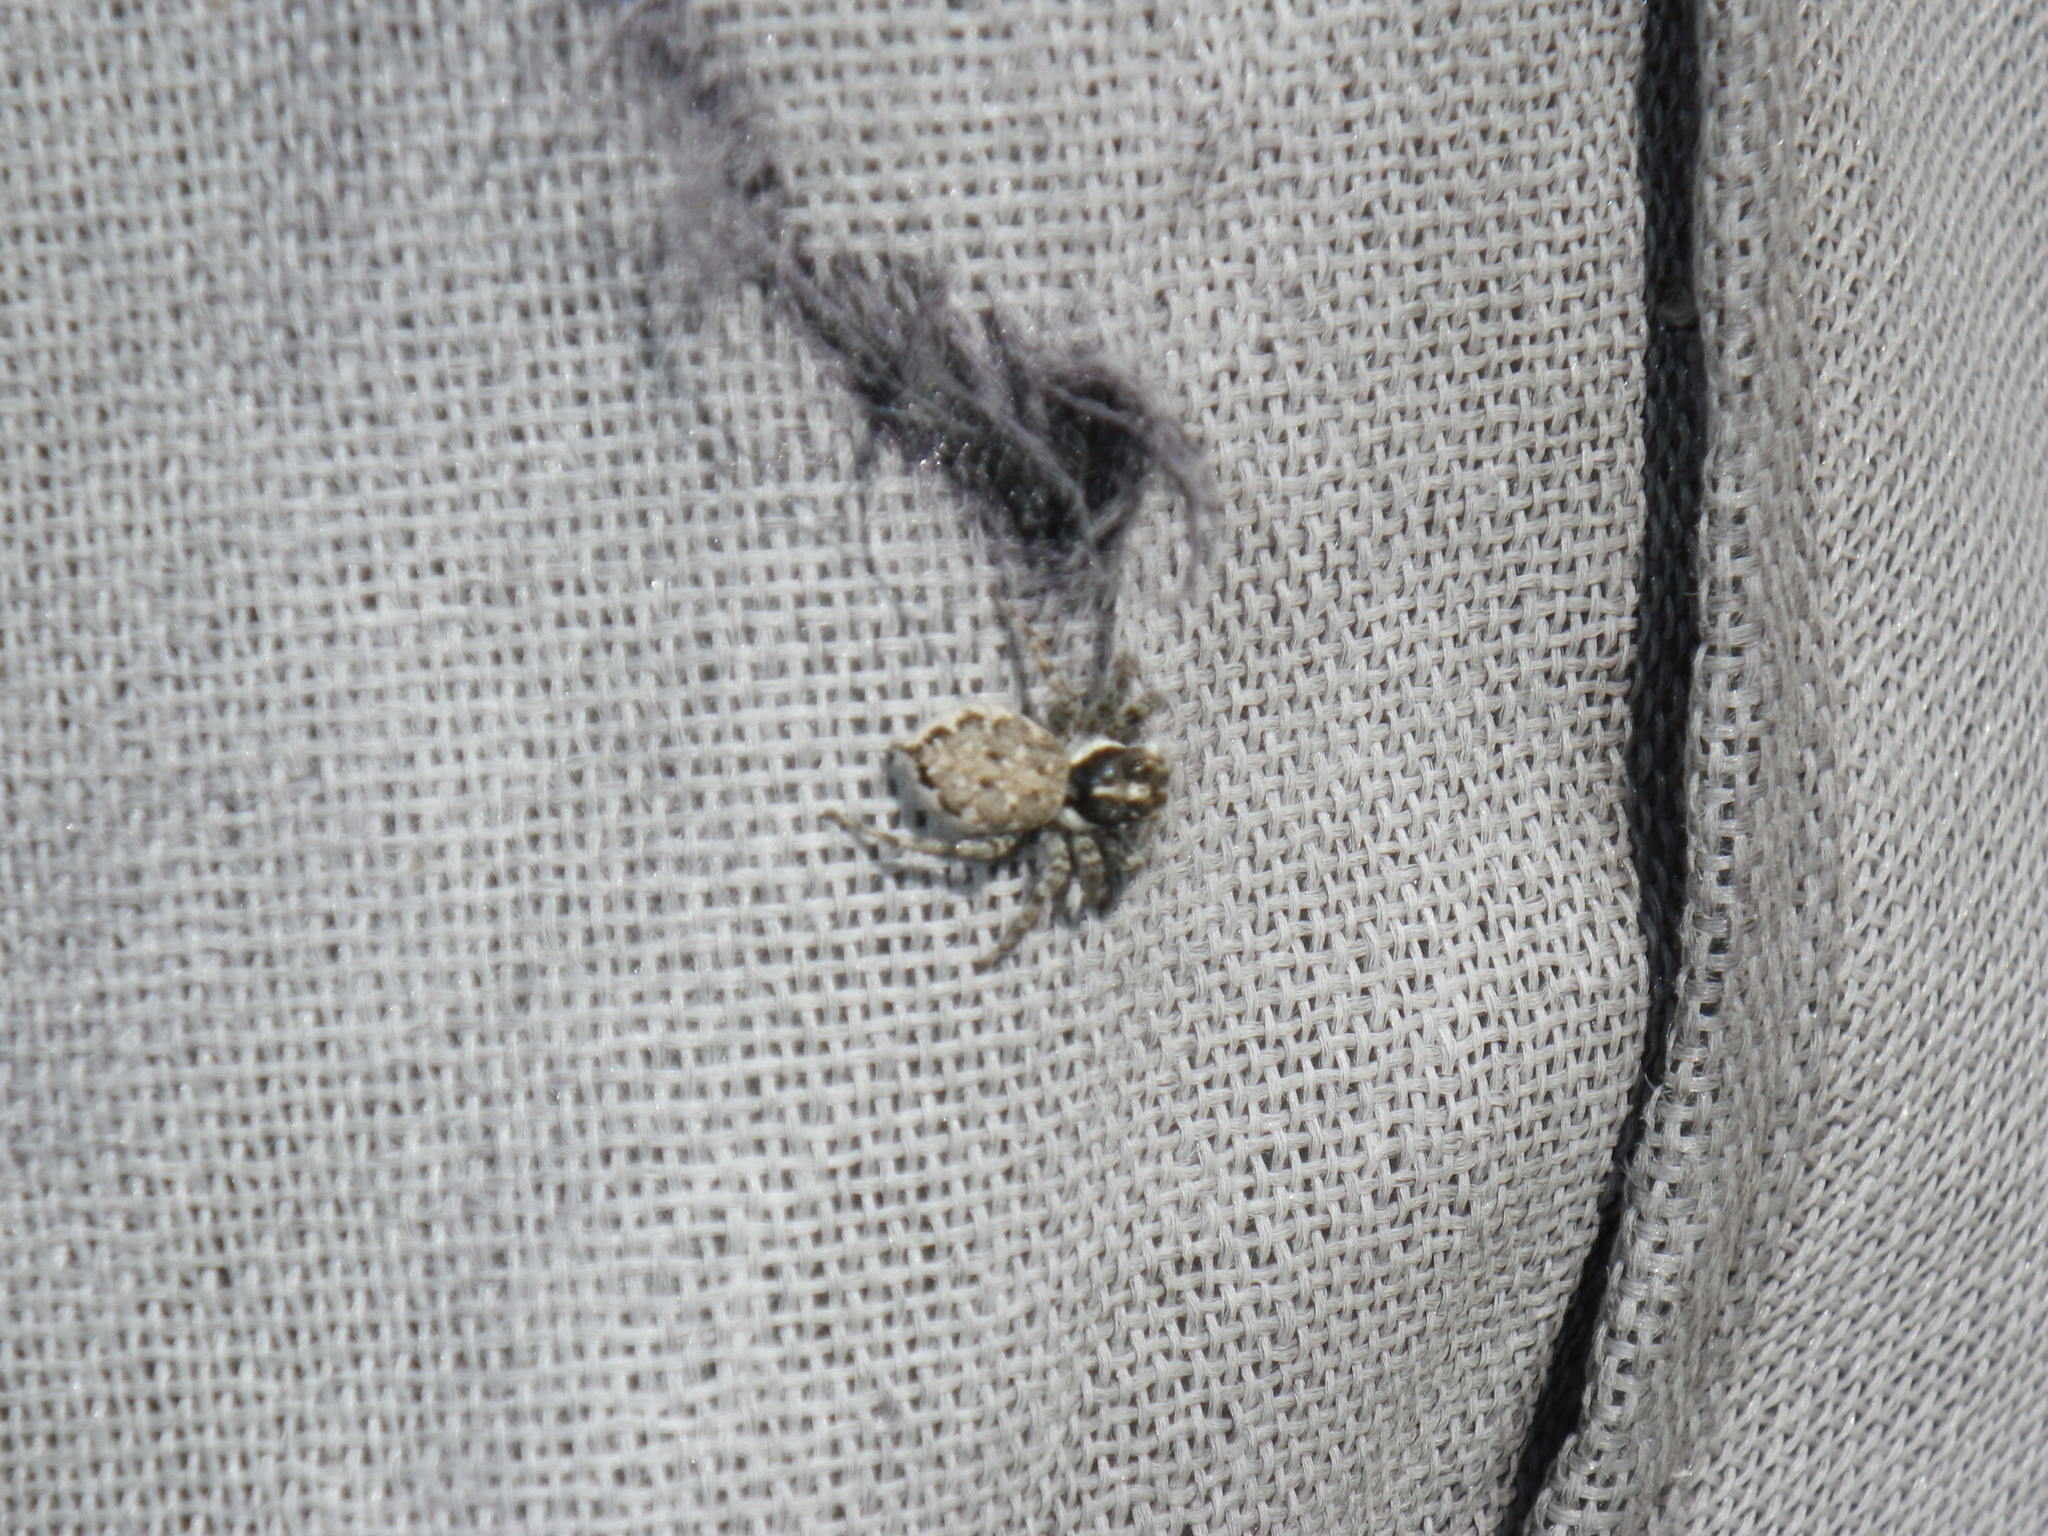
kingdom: Animalia
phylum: Arthropoda
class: Arachnida
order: Araneae
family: Salticidae
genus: Menemerus
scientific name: Menemerus semilimbatus
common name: Jumping spider
